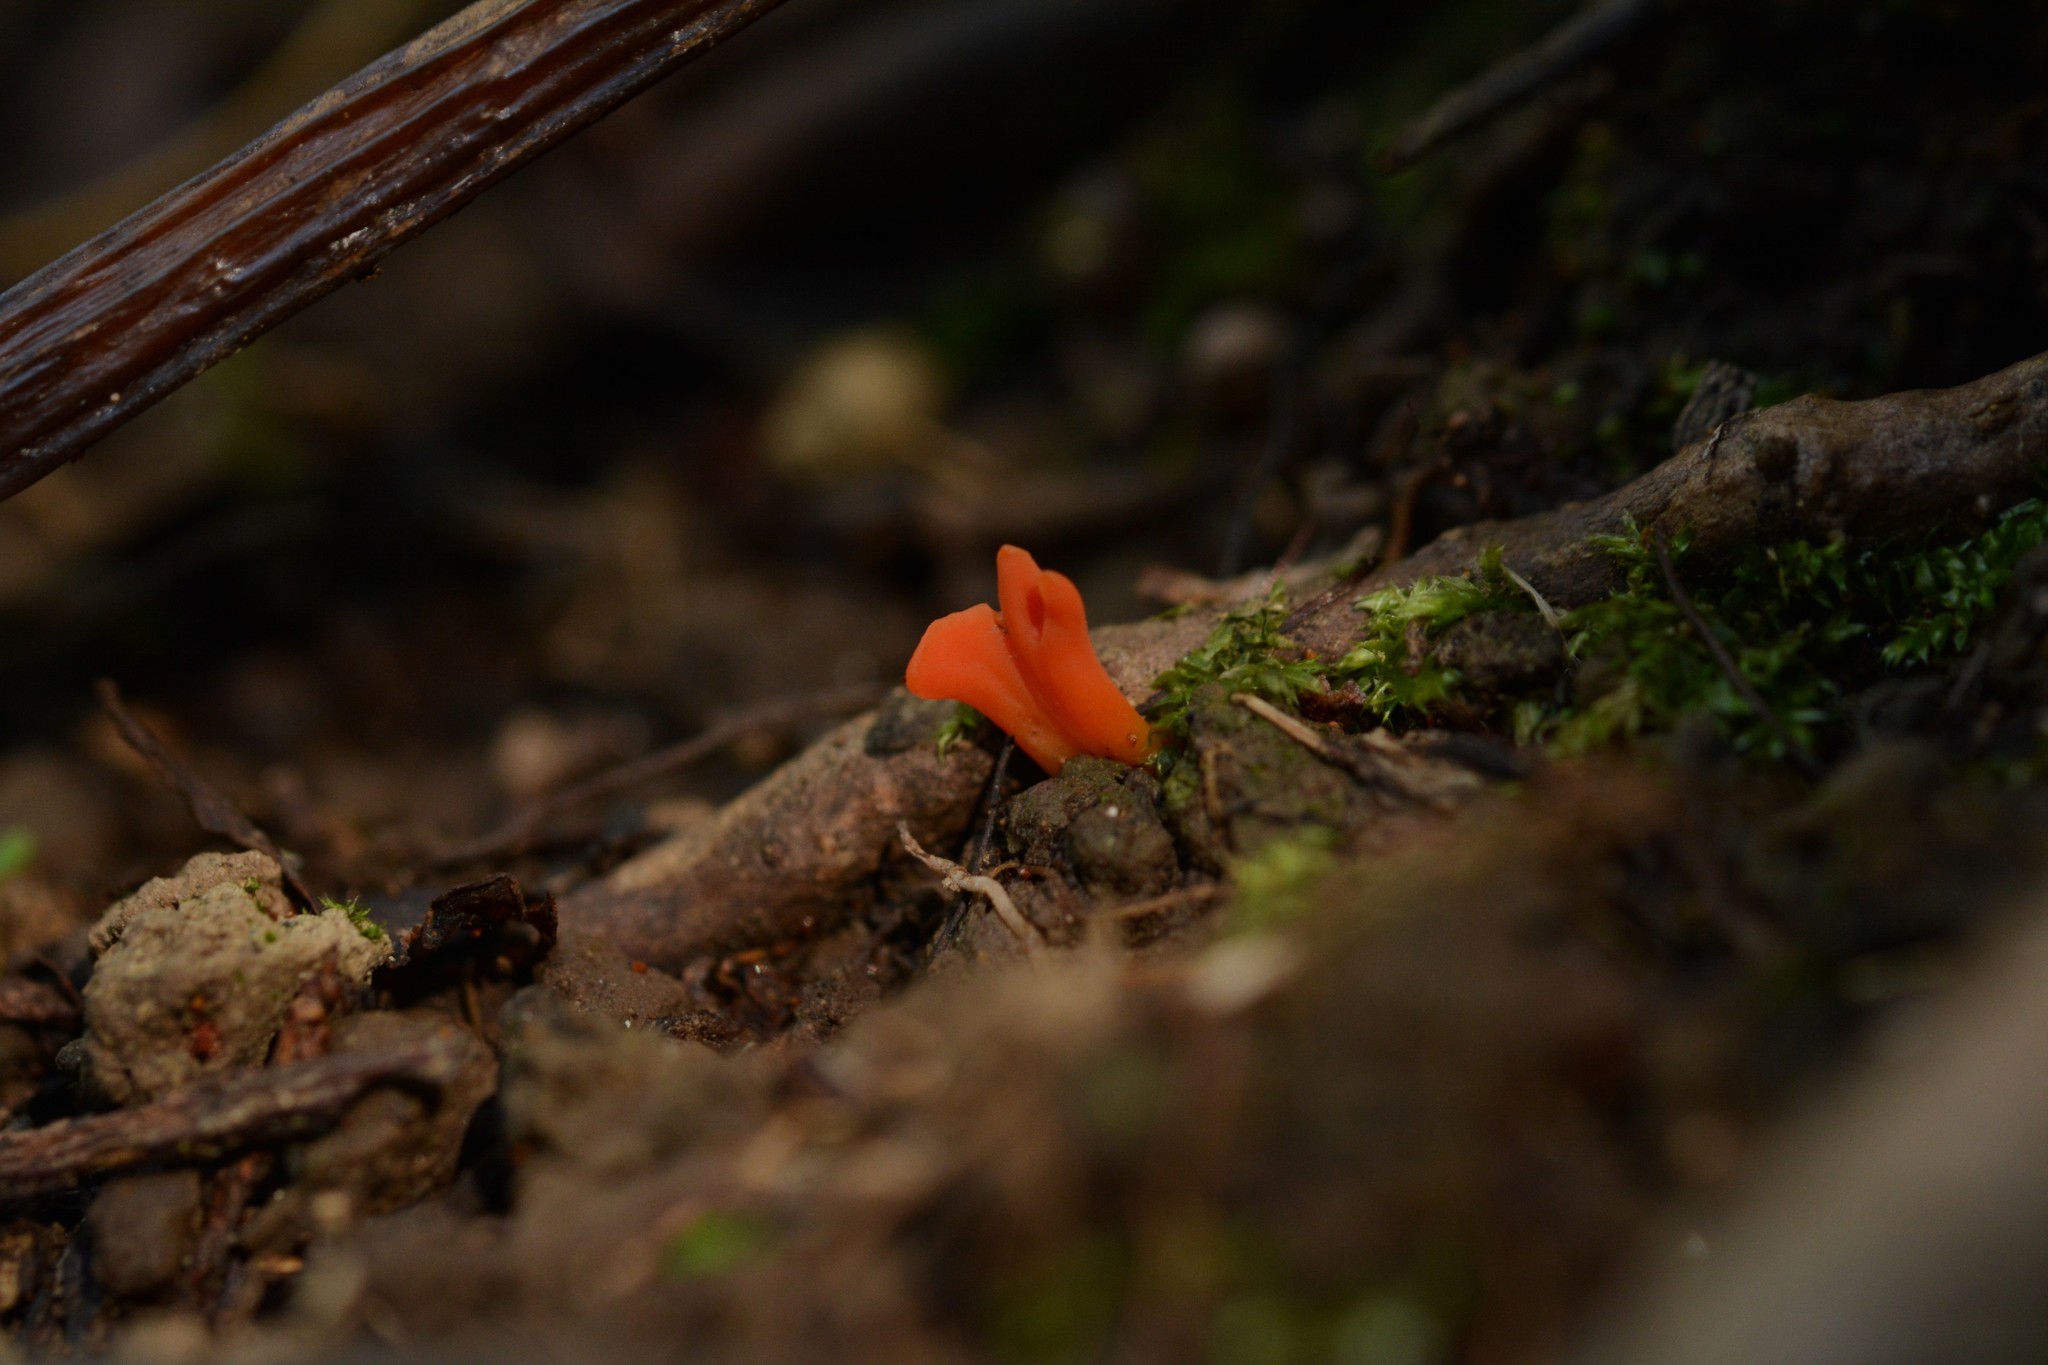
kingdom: Fungi
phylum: Basidiomycota
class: Agaricomycetes
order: Agaricales
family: Clavariaceae
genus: Clavulinopsis
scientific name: Clavulinopsis sulcata
